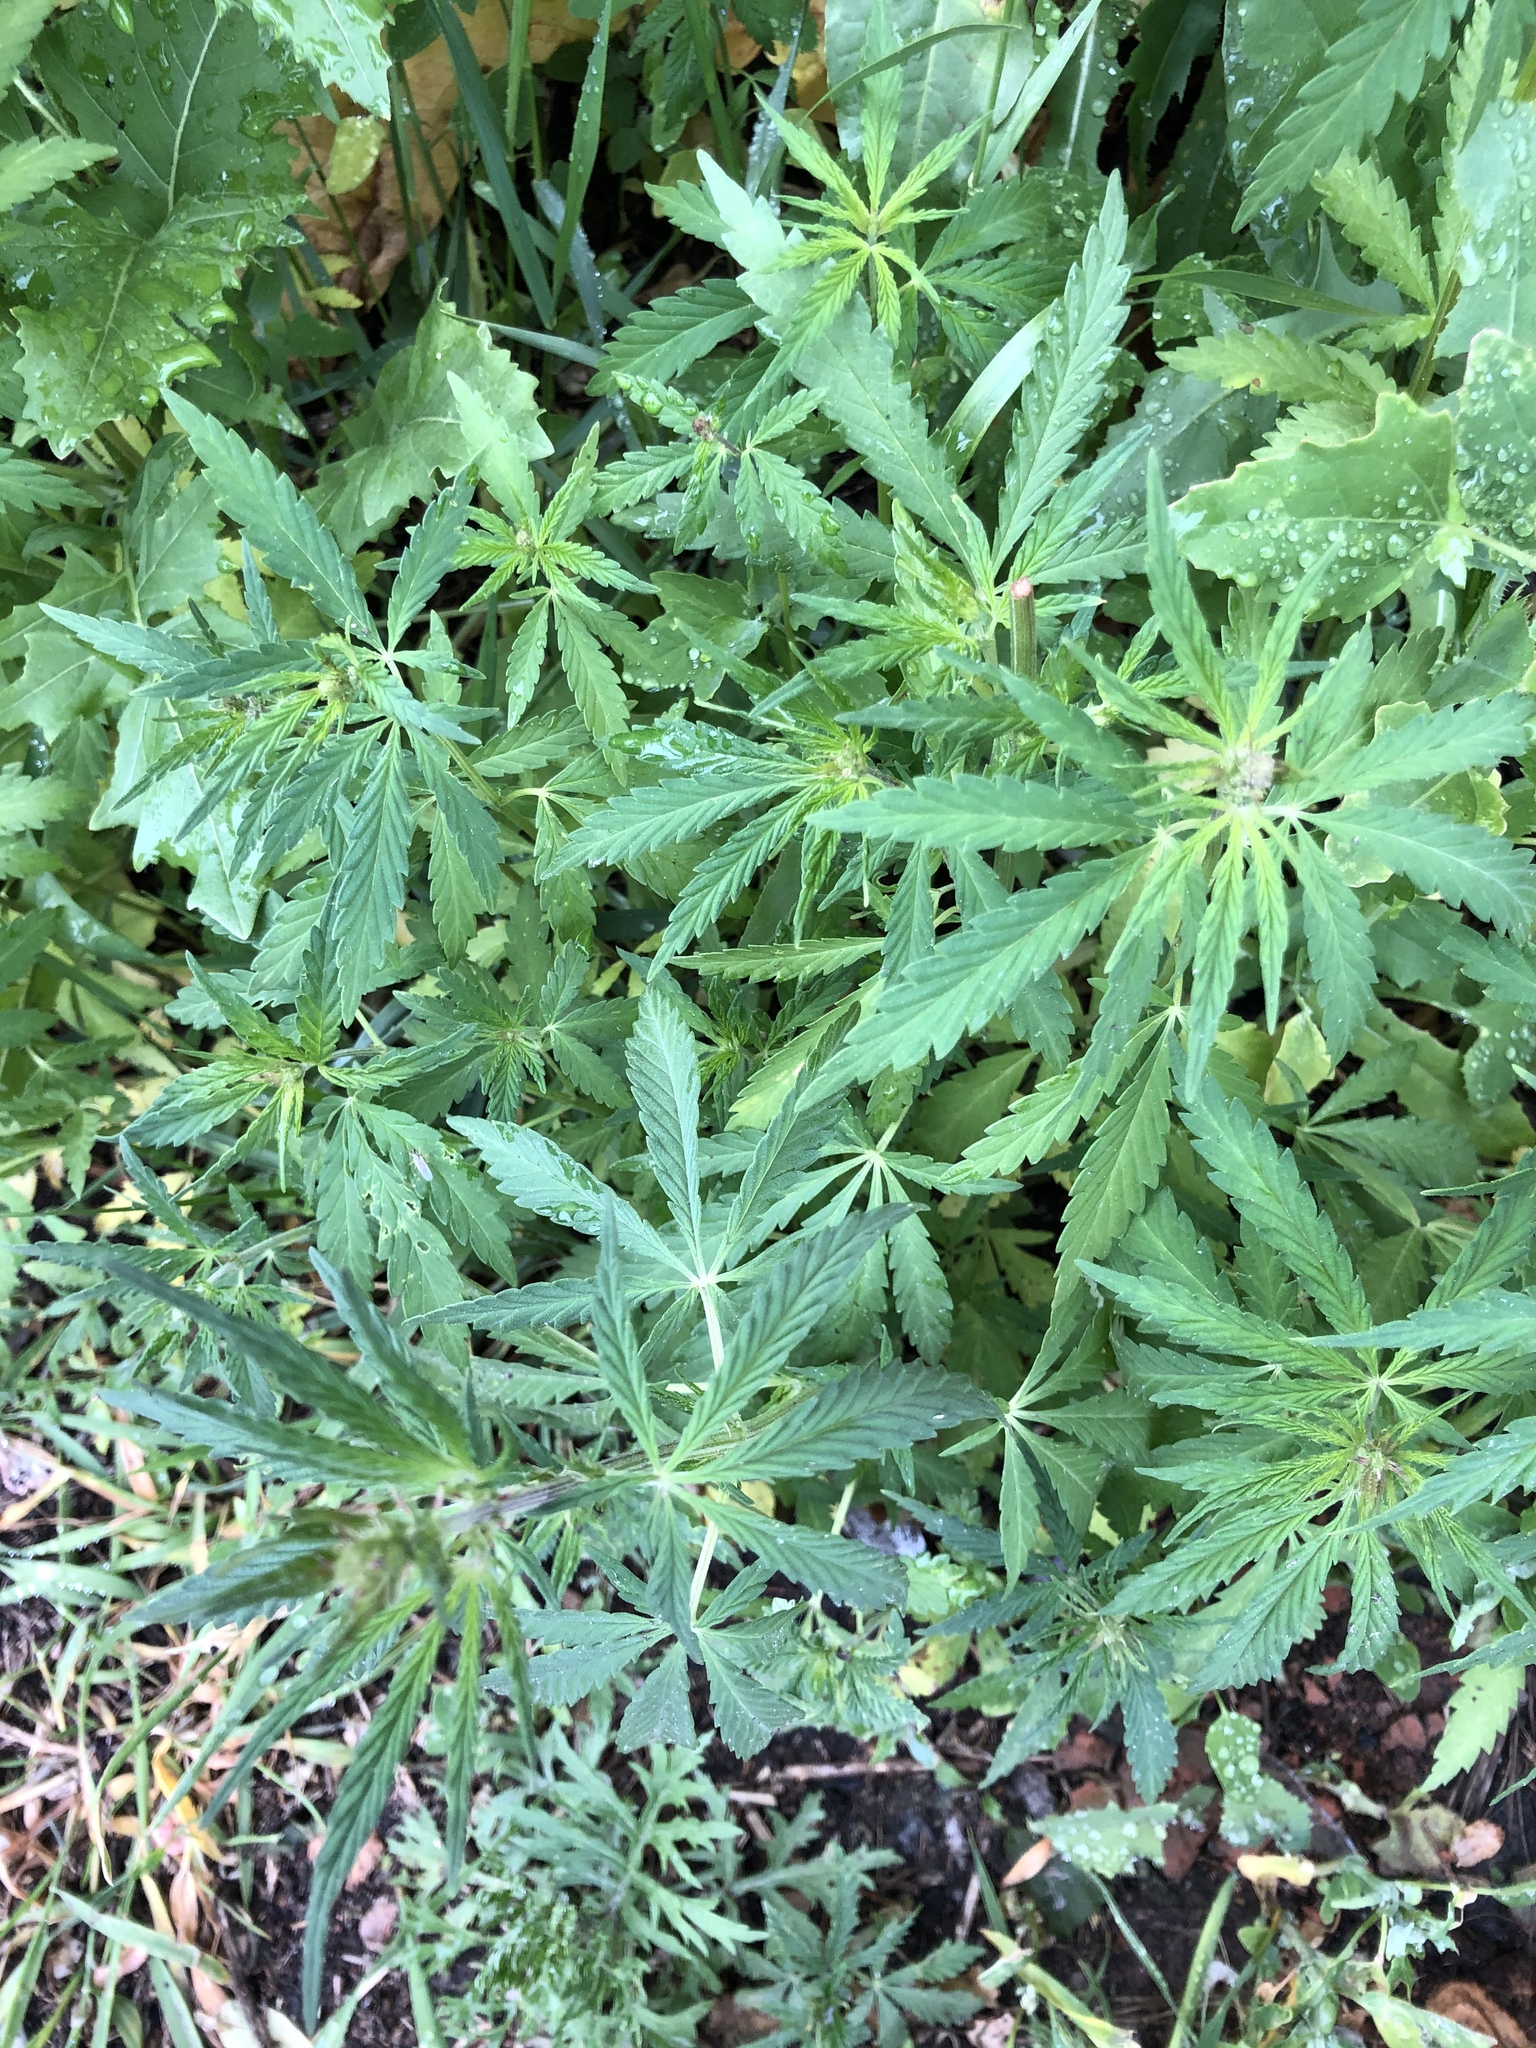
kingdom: Plantae
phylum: Tracheophyta
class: Magnoliopsida
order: Rosales
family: Cannabaceae
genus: Cannabis
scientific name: Cannabis sativa
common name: Hemp
